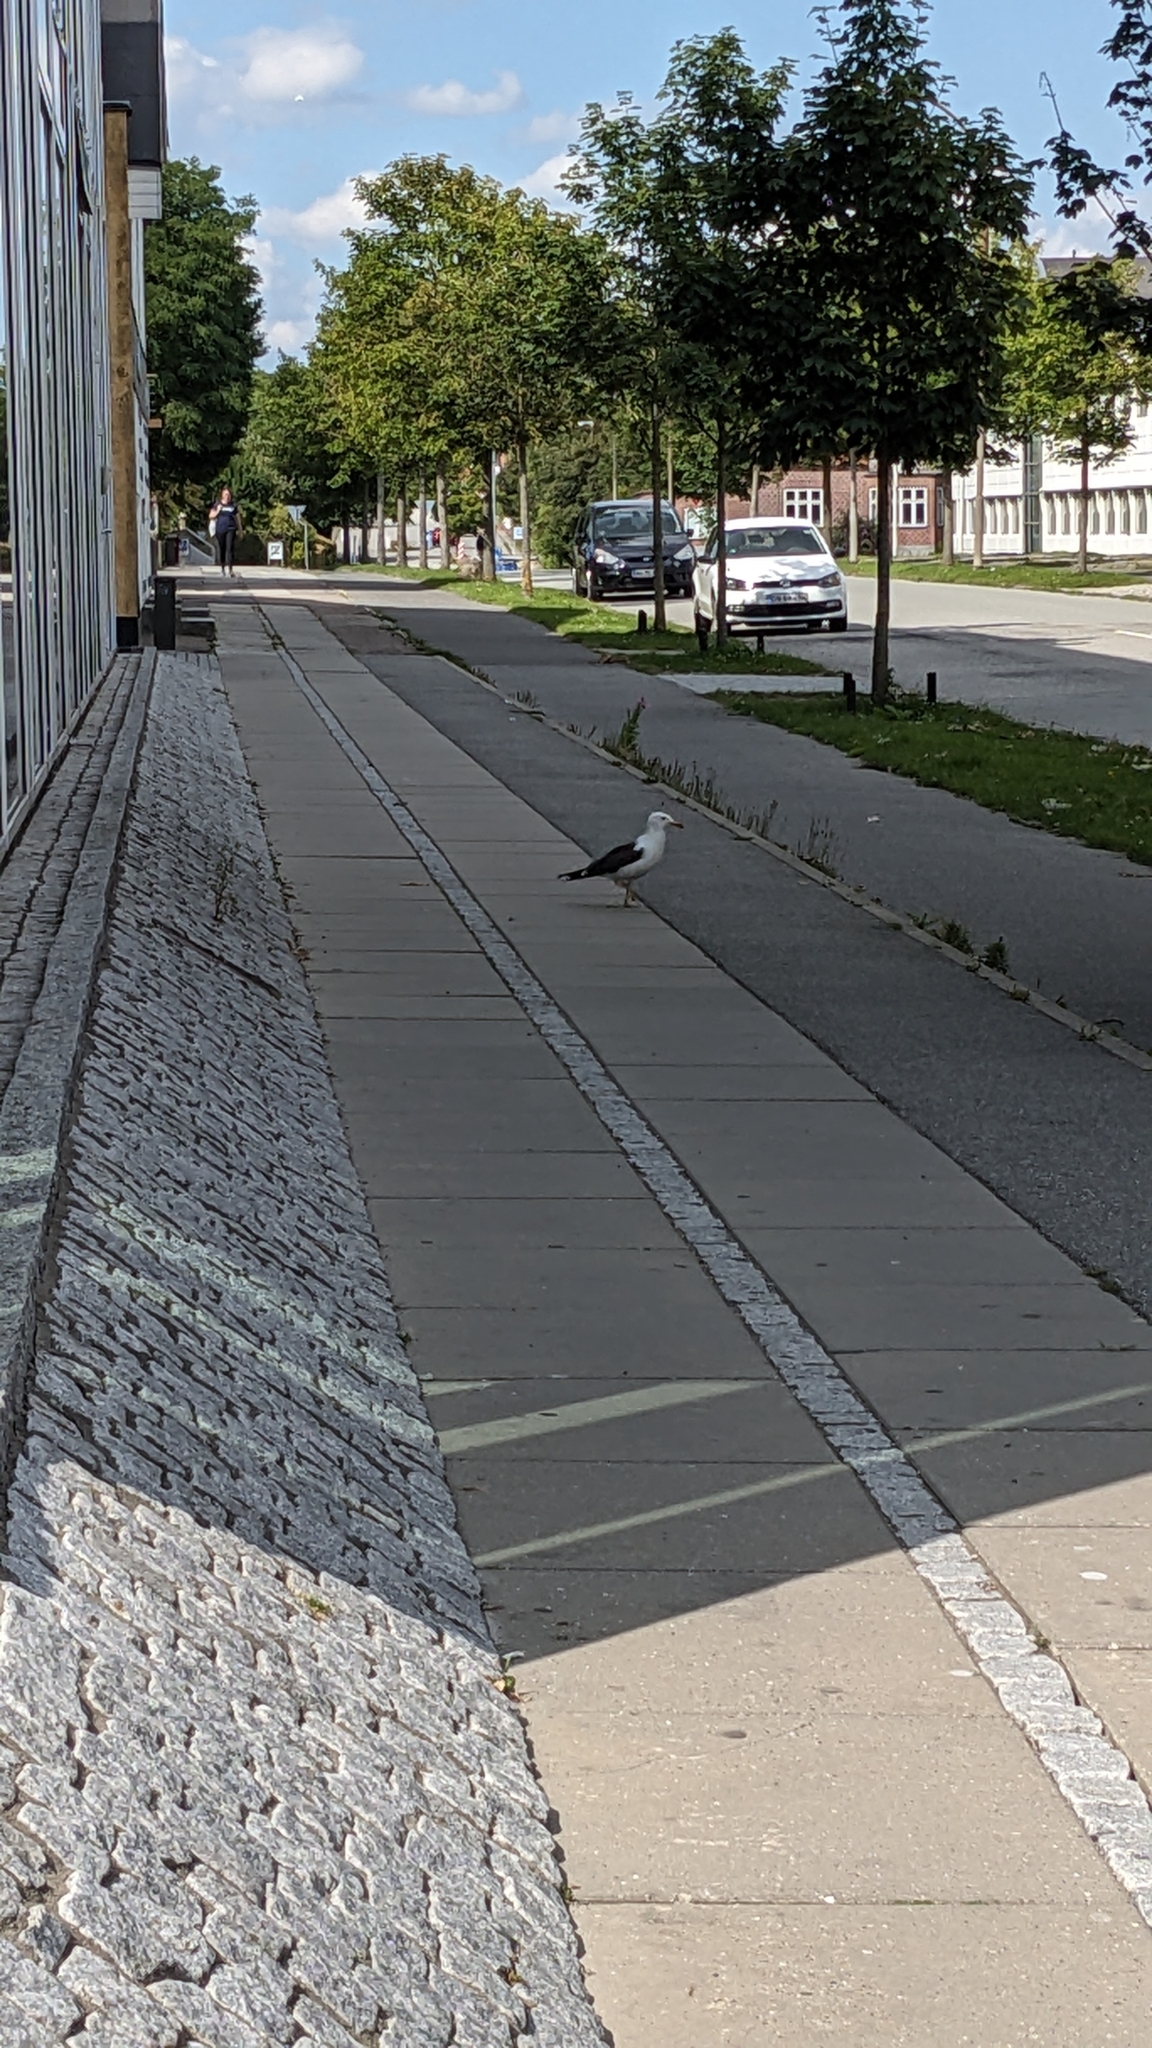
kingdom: Animalia
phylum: Chordata
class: Aves
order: Charadriiformes
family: Laridae
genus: Larus
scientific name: Larus fuscus
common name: Lesser black-backed gull
